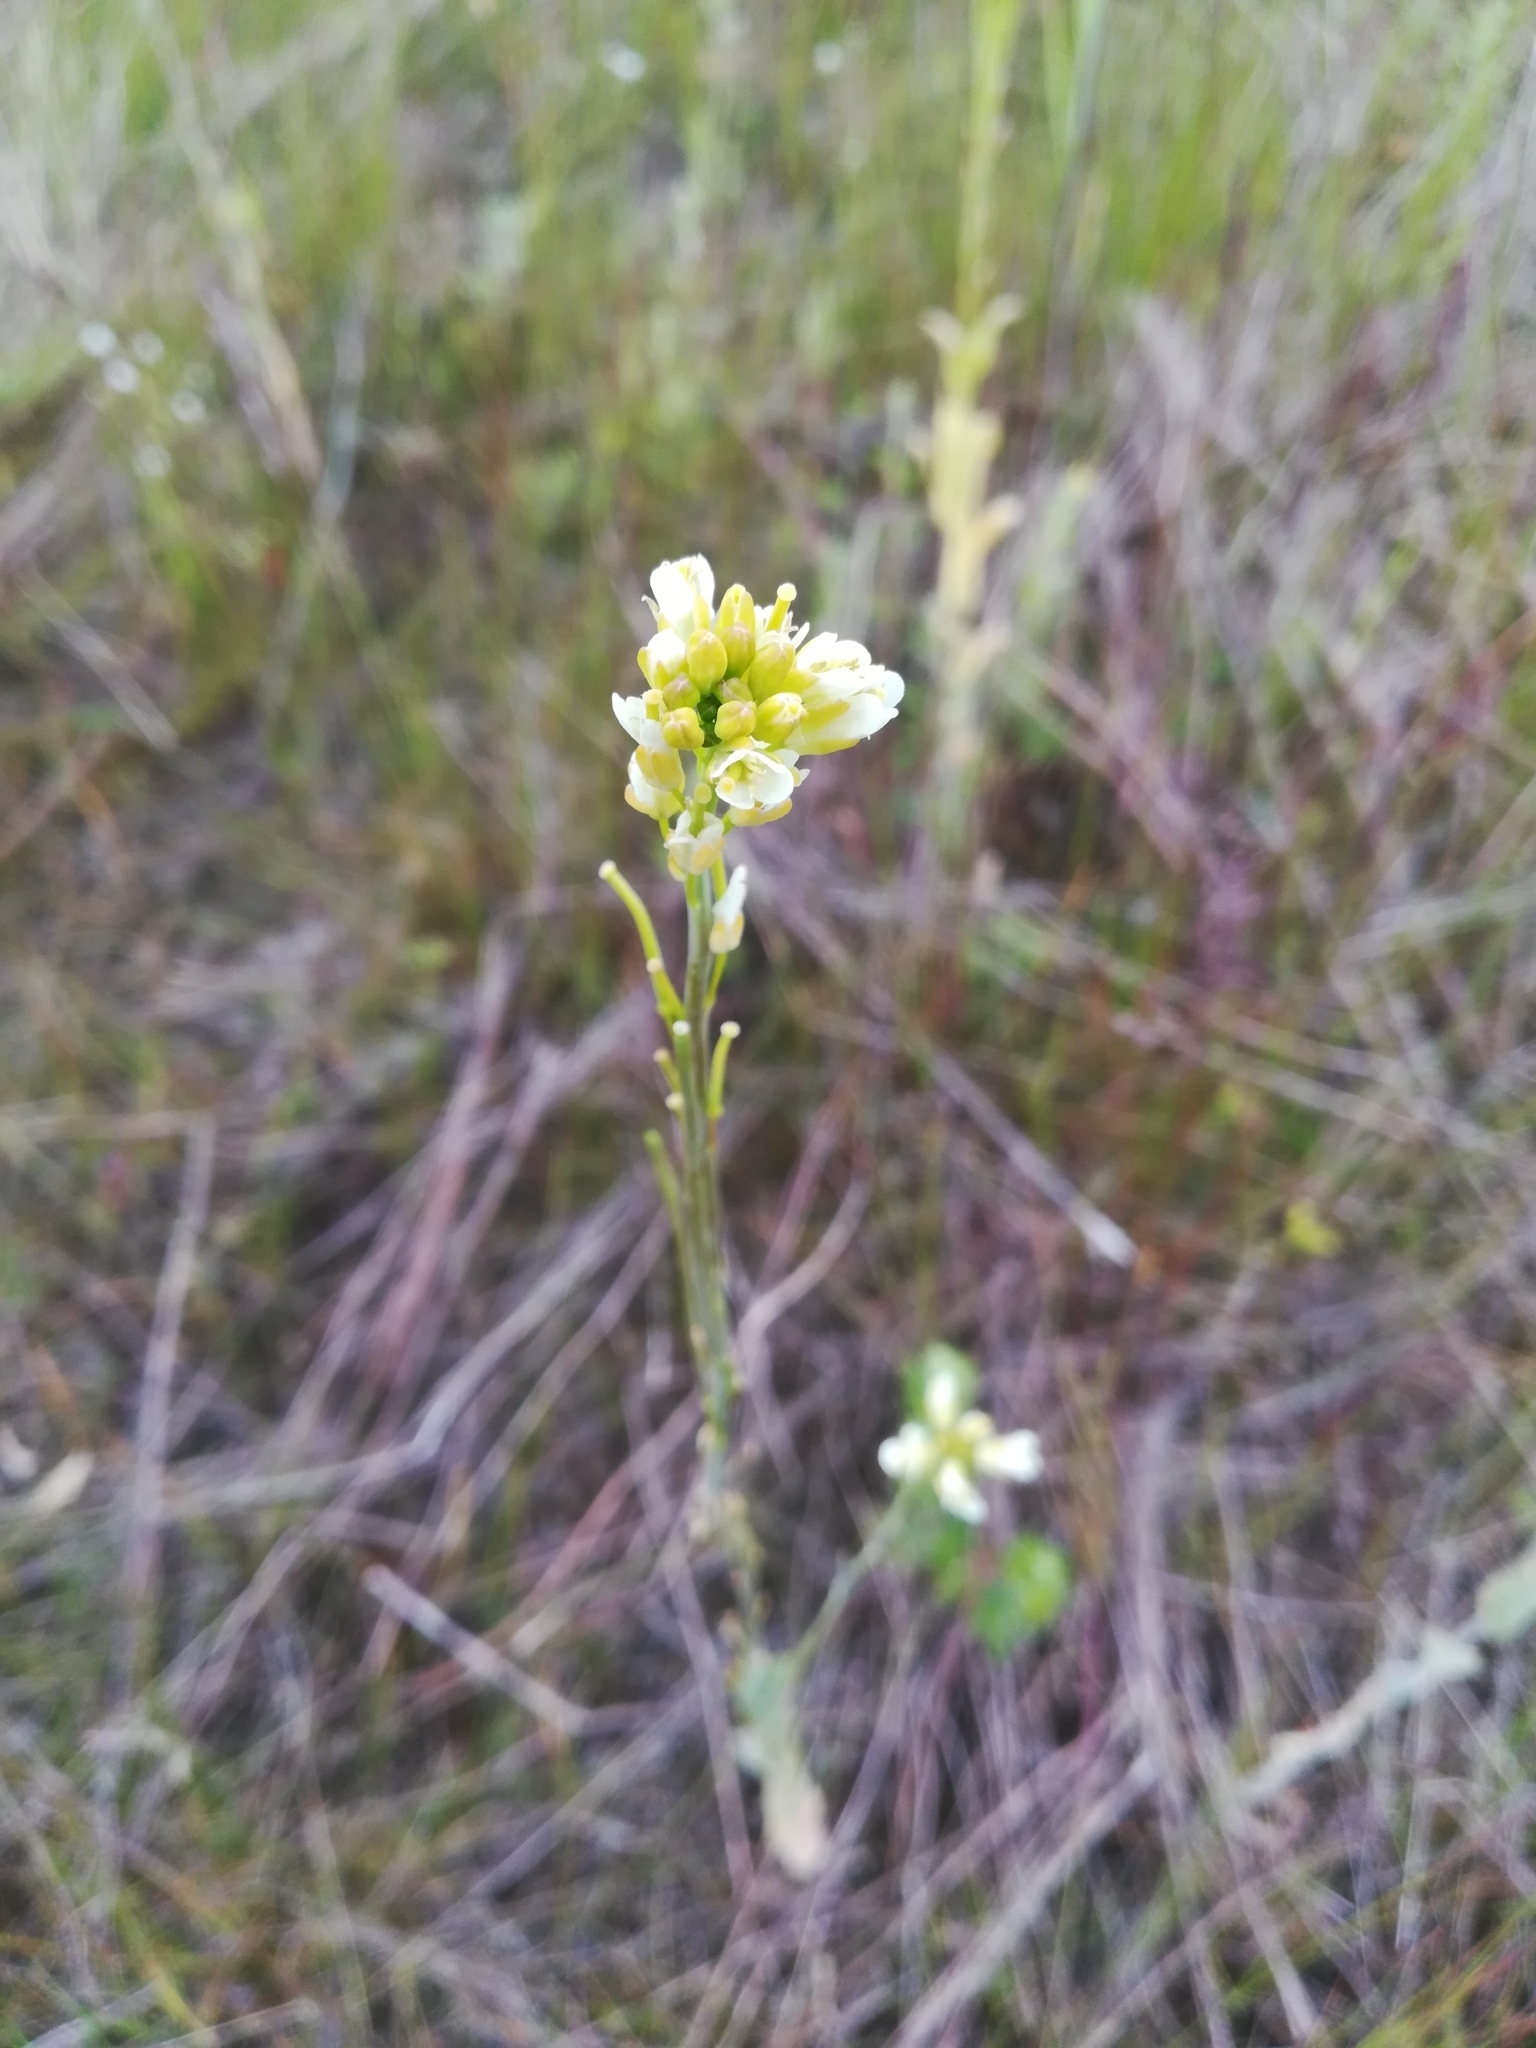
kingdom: Plantae
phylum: Tracheophyta
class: Magnoliopsida
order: Brassicales
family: Brassicaceae
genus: Turritis
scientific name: Turritis glabra
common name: Tower rockcress
